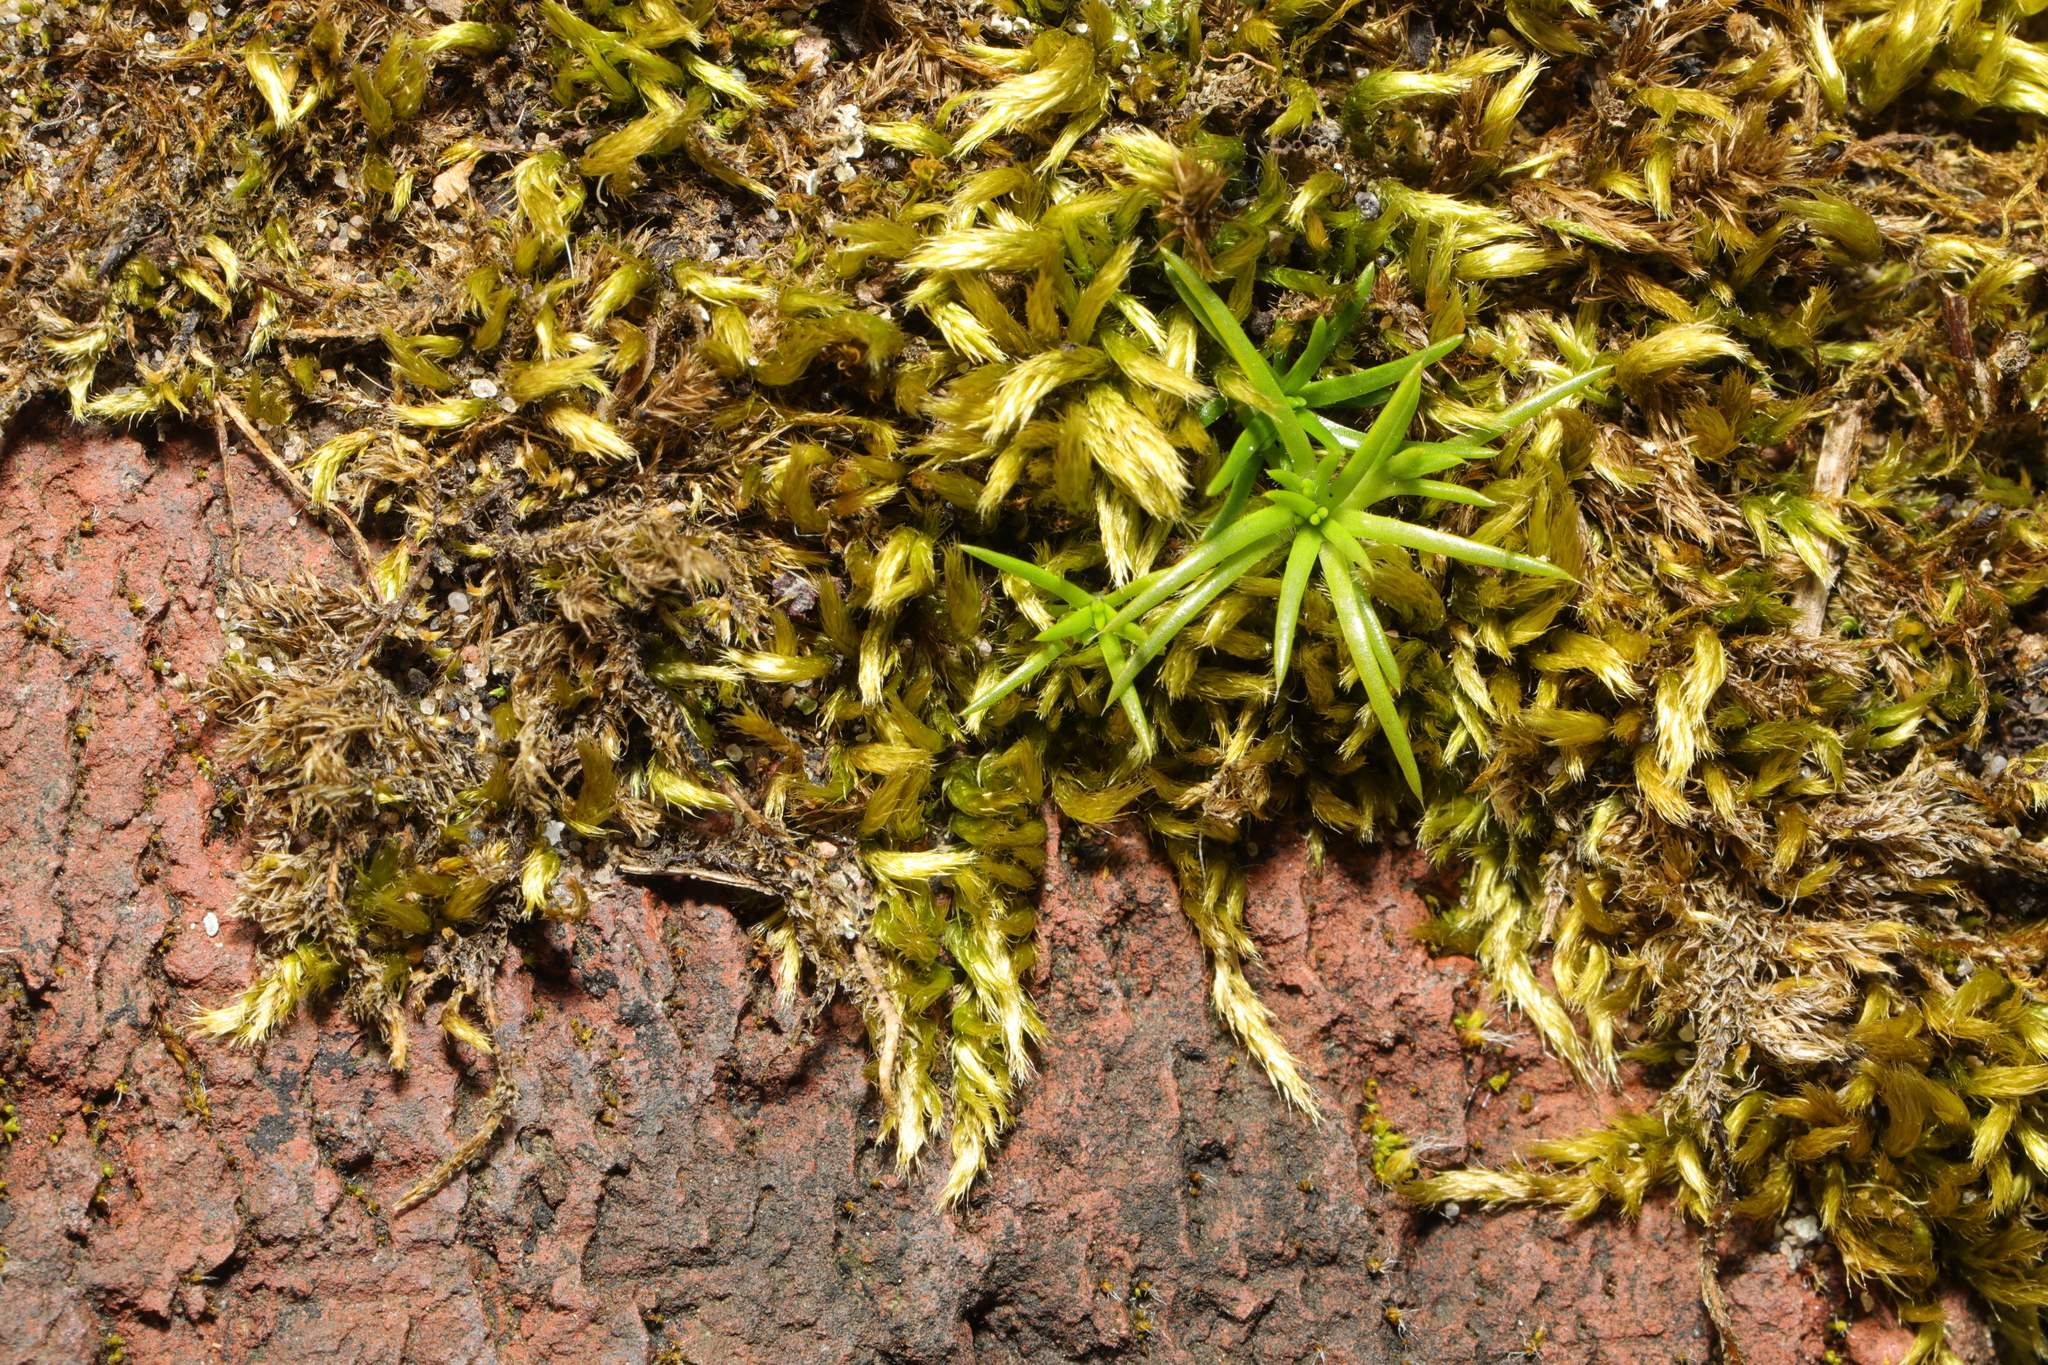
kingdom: Plantae
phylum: Tracheophyta
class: Magnoliopsida
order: Caryophyllales
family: Caryophyllaceae
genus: Sagina
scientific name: Sagina procumbens
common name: Procumbent pearlwort
